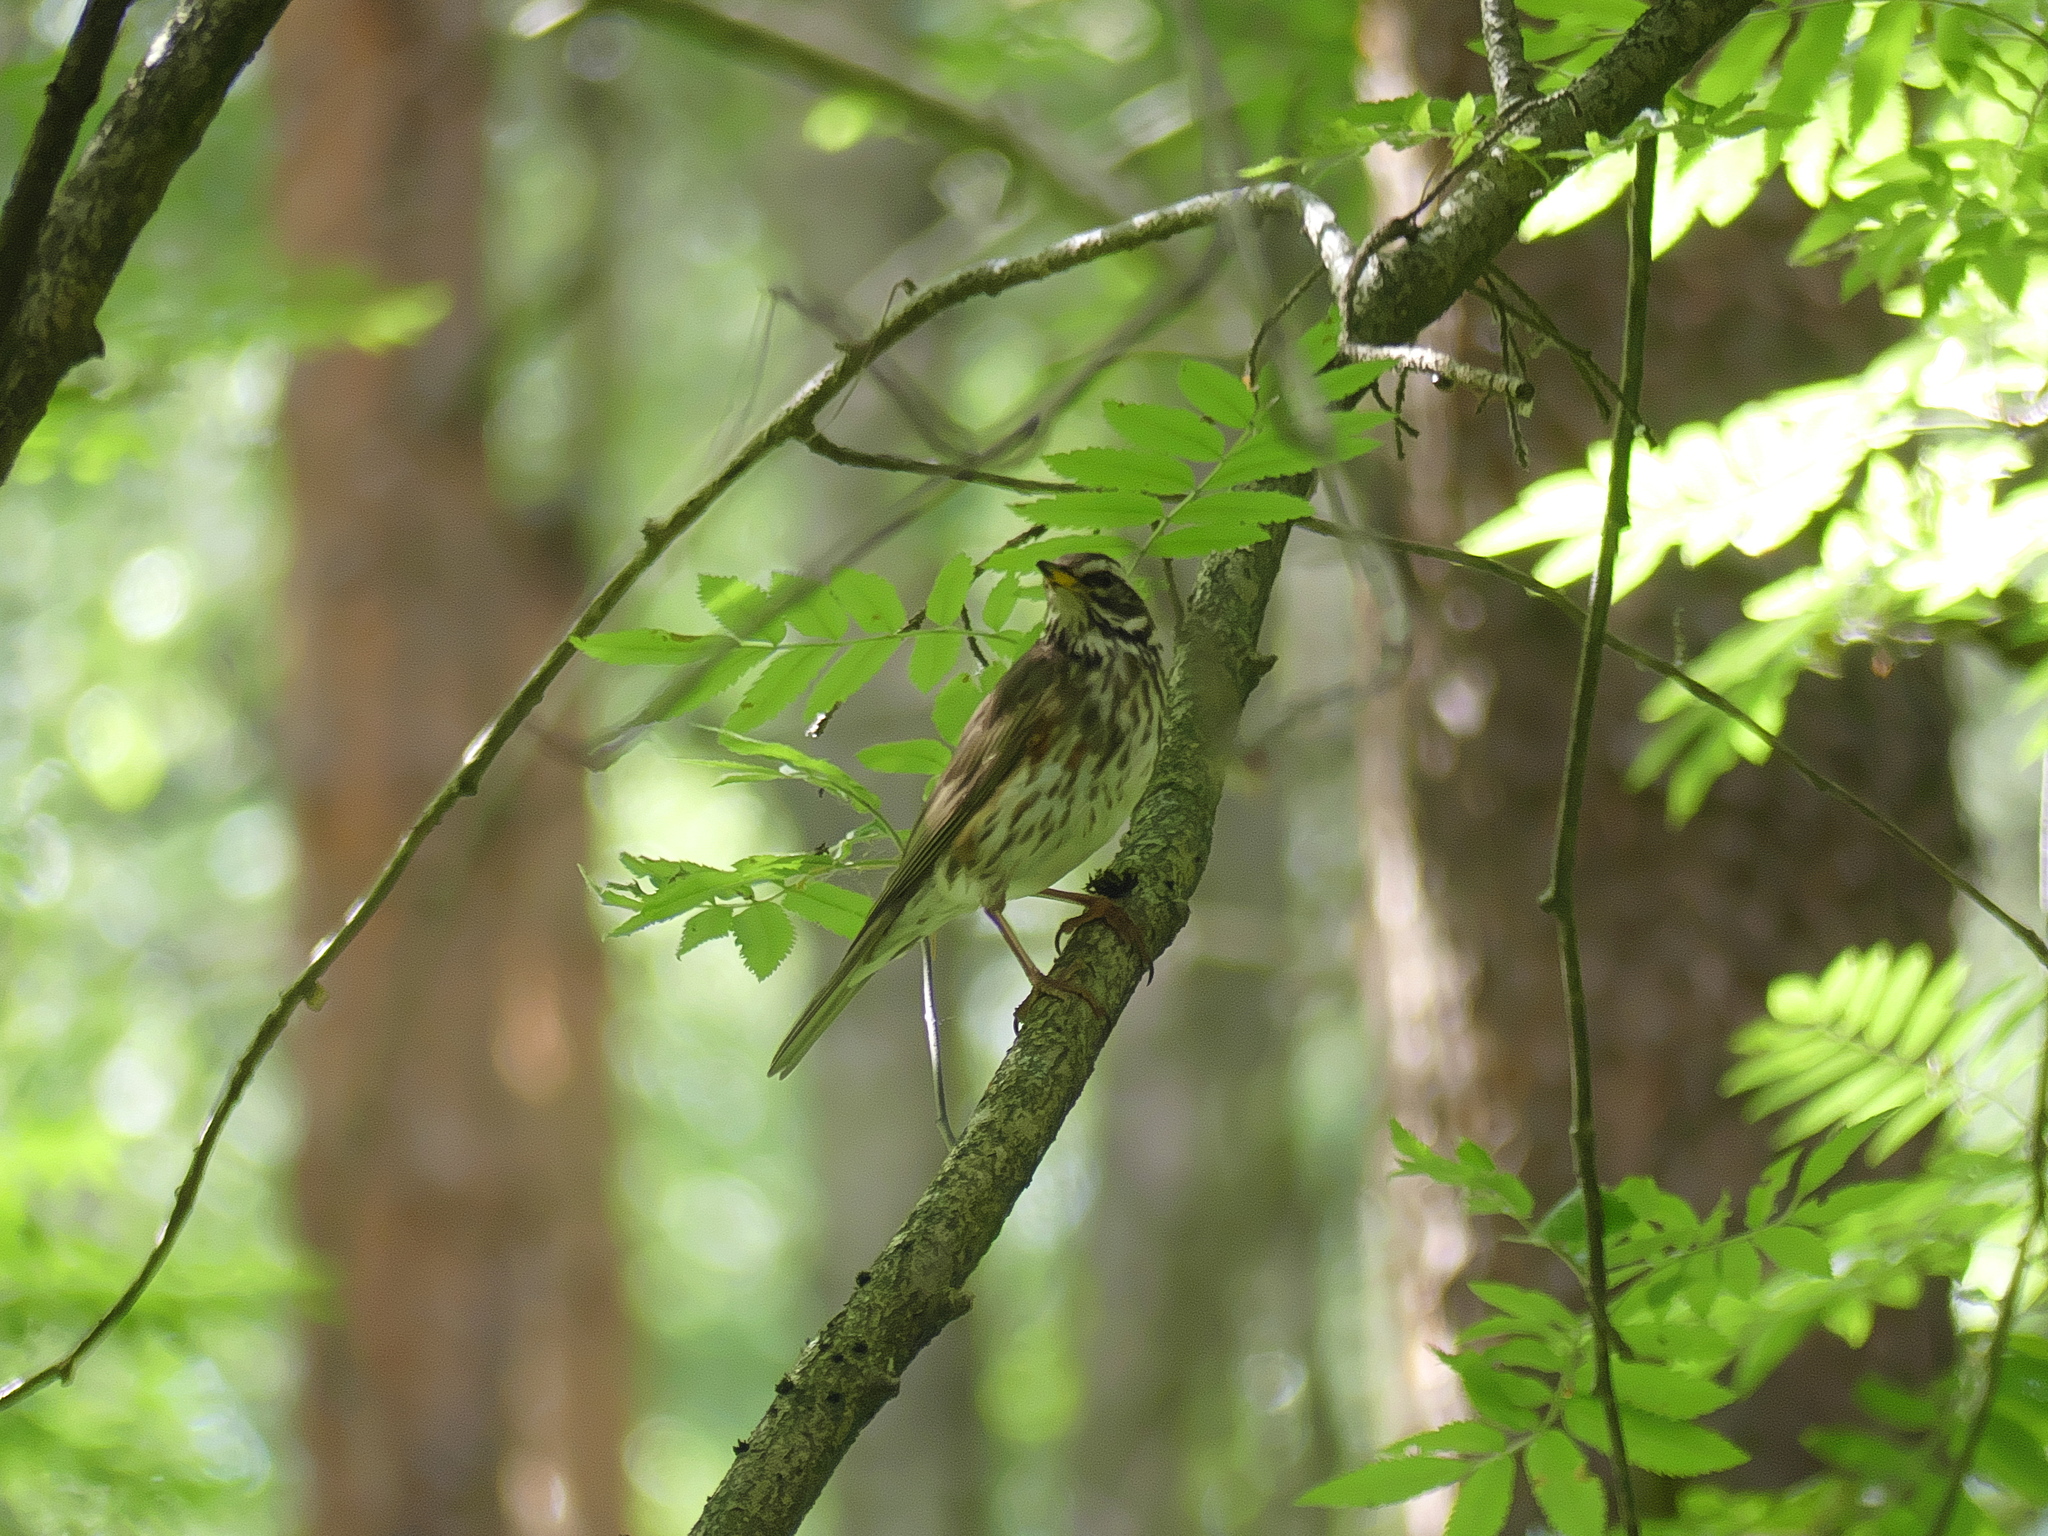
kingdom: Animalia
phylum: Chordata
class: Aves
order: Passeriformes
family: Turdidae
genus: Turdus
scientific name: Turdus iliacus
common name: Redwing
